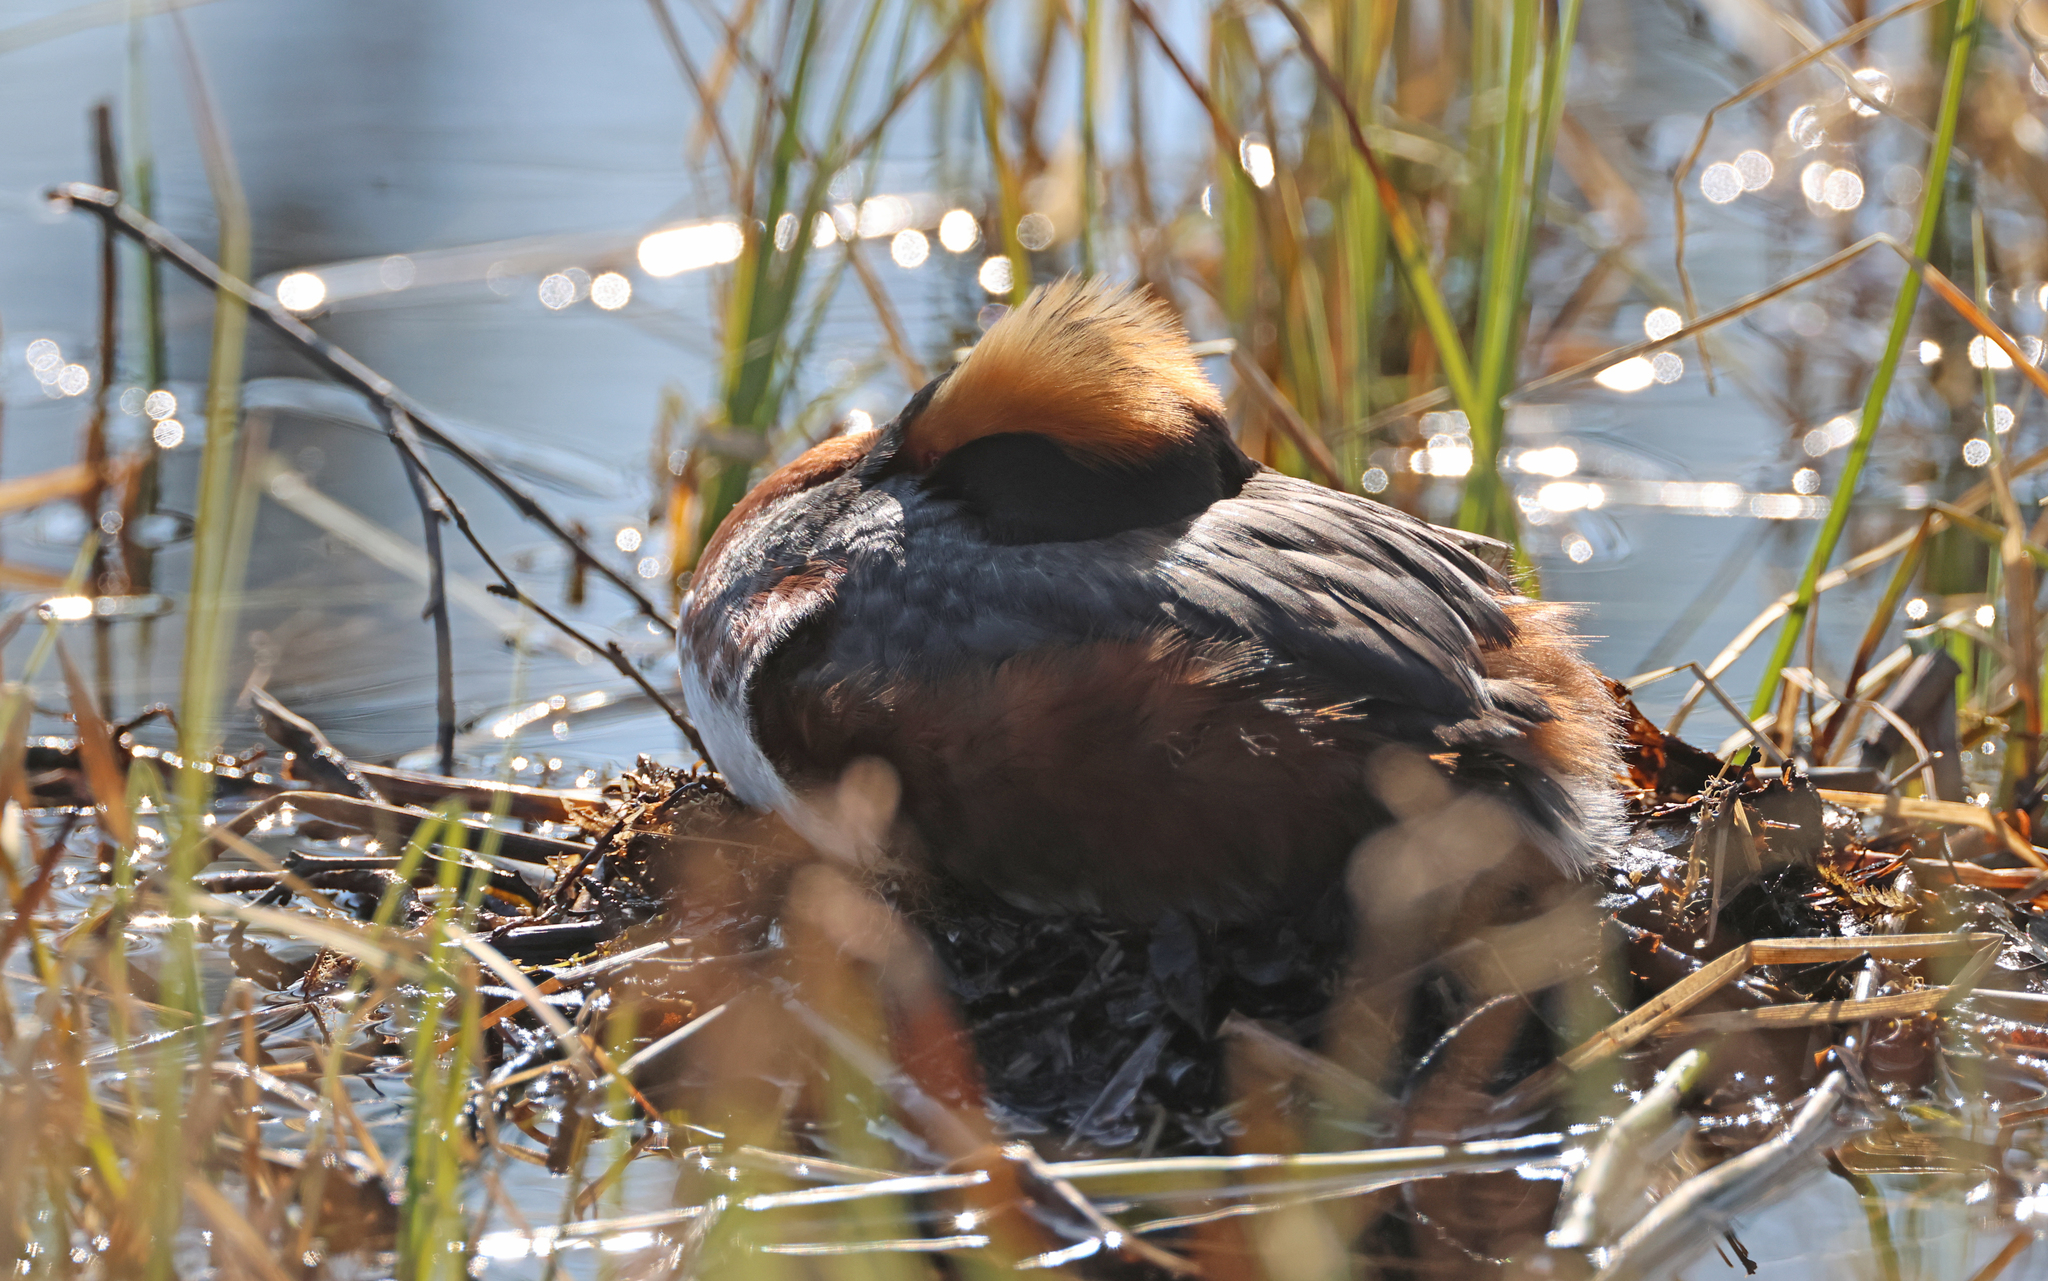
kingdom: Animalia
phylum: Chordata
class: Aves
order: Podicipediformes
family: Podicipedidae
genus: Podiceps
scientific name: Podiceps auritus
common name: Horned grebe
